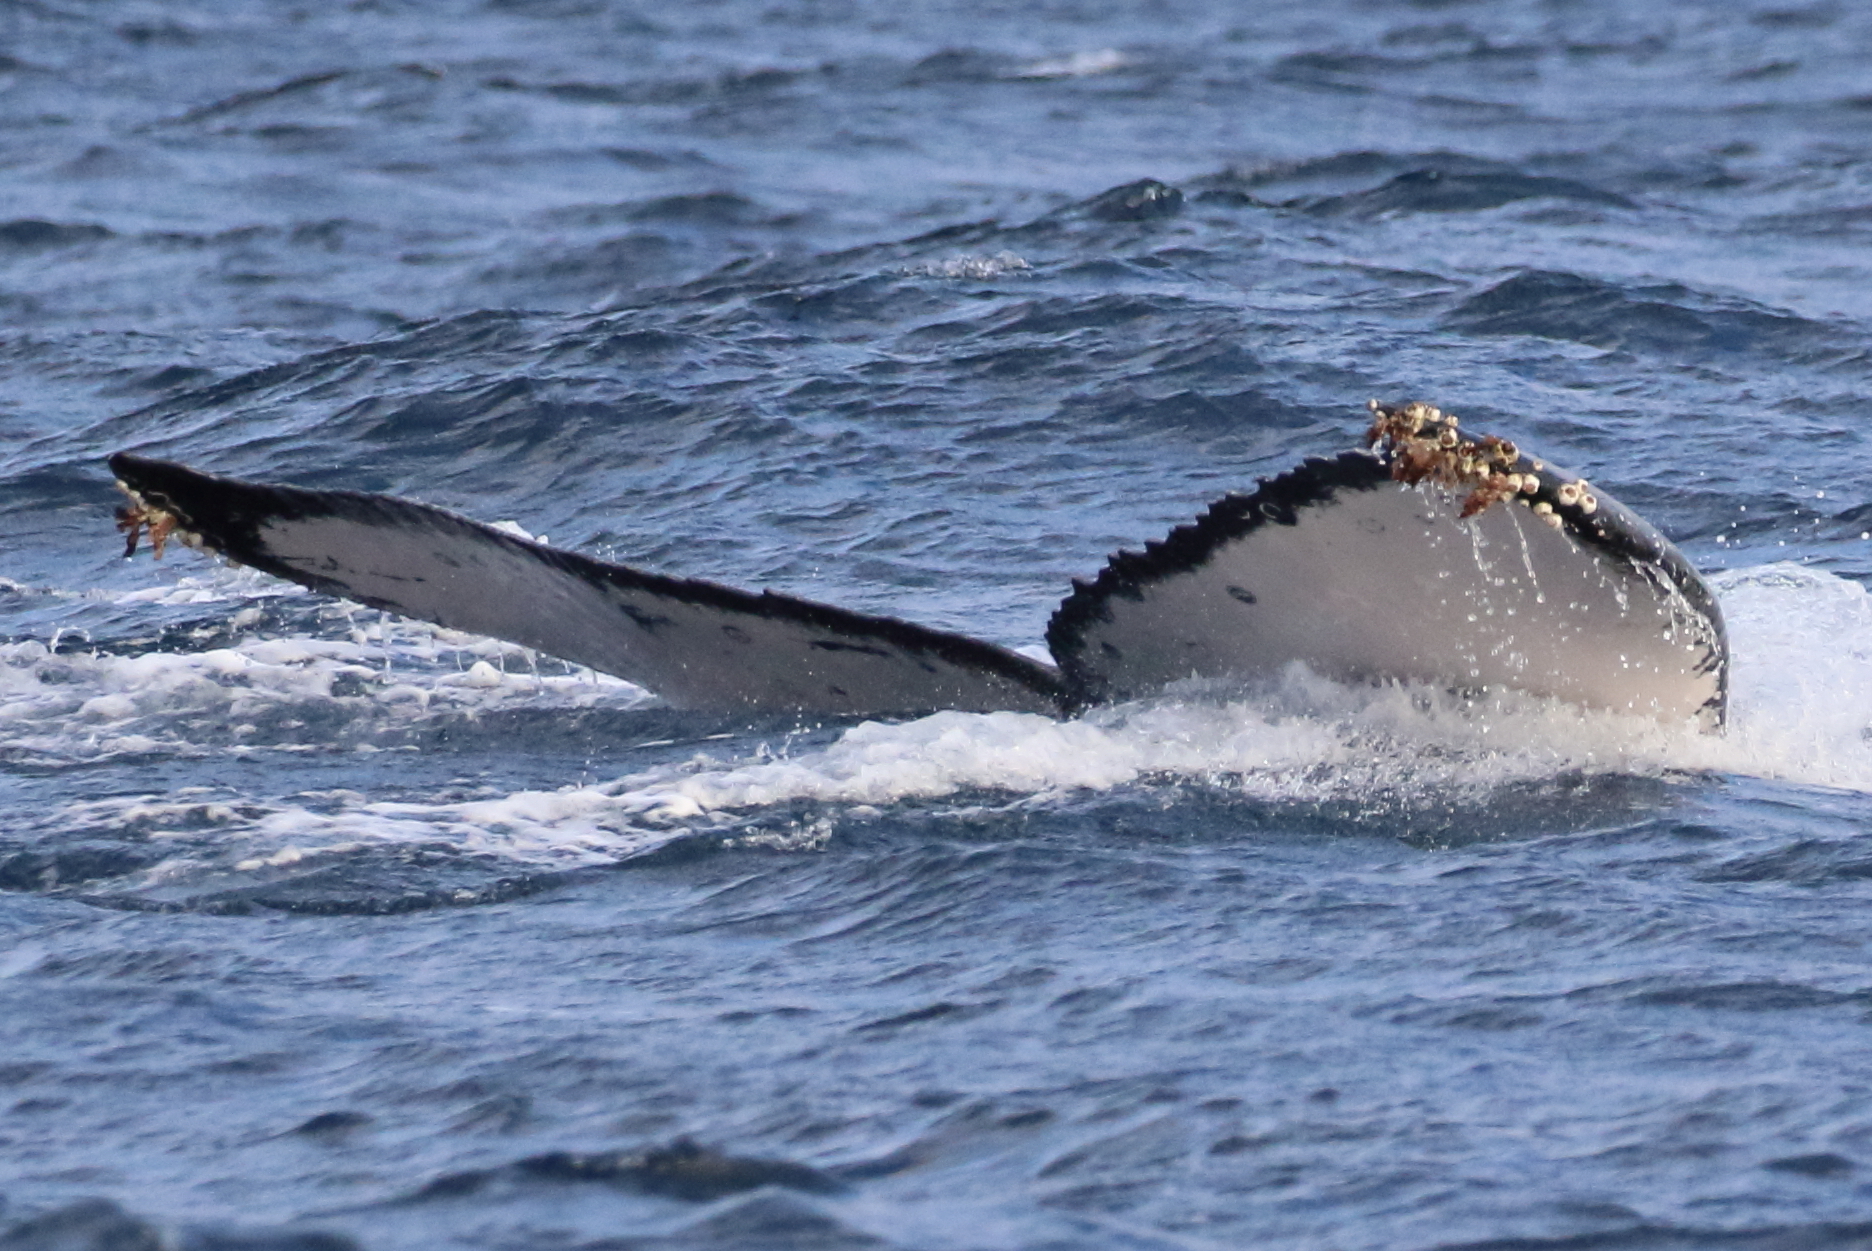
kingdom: Animalia
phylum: Arthropoda
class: Maxillopoda
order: Pedunculata
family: Lepadidae
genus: Conchoderma
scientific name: Conchoderma auritum
